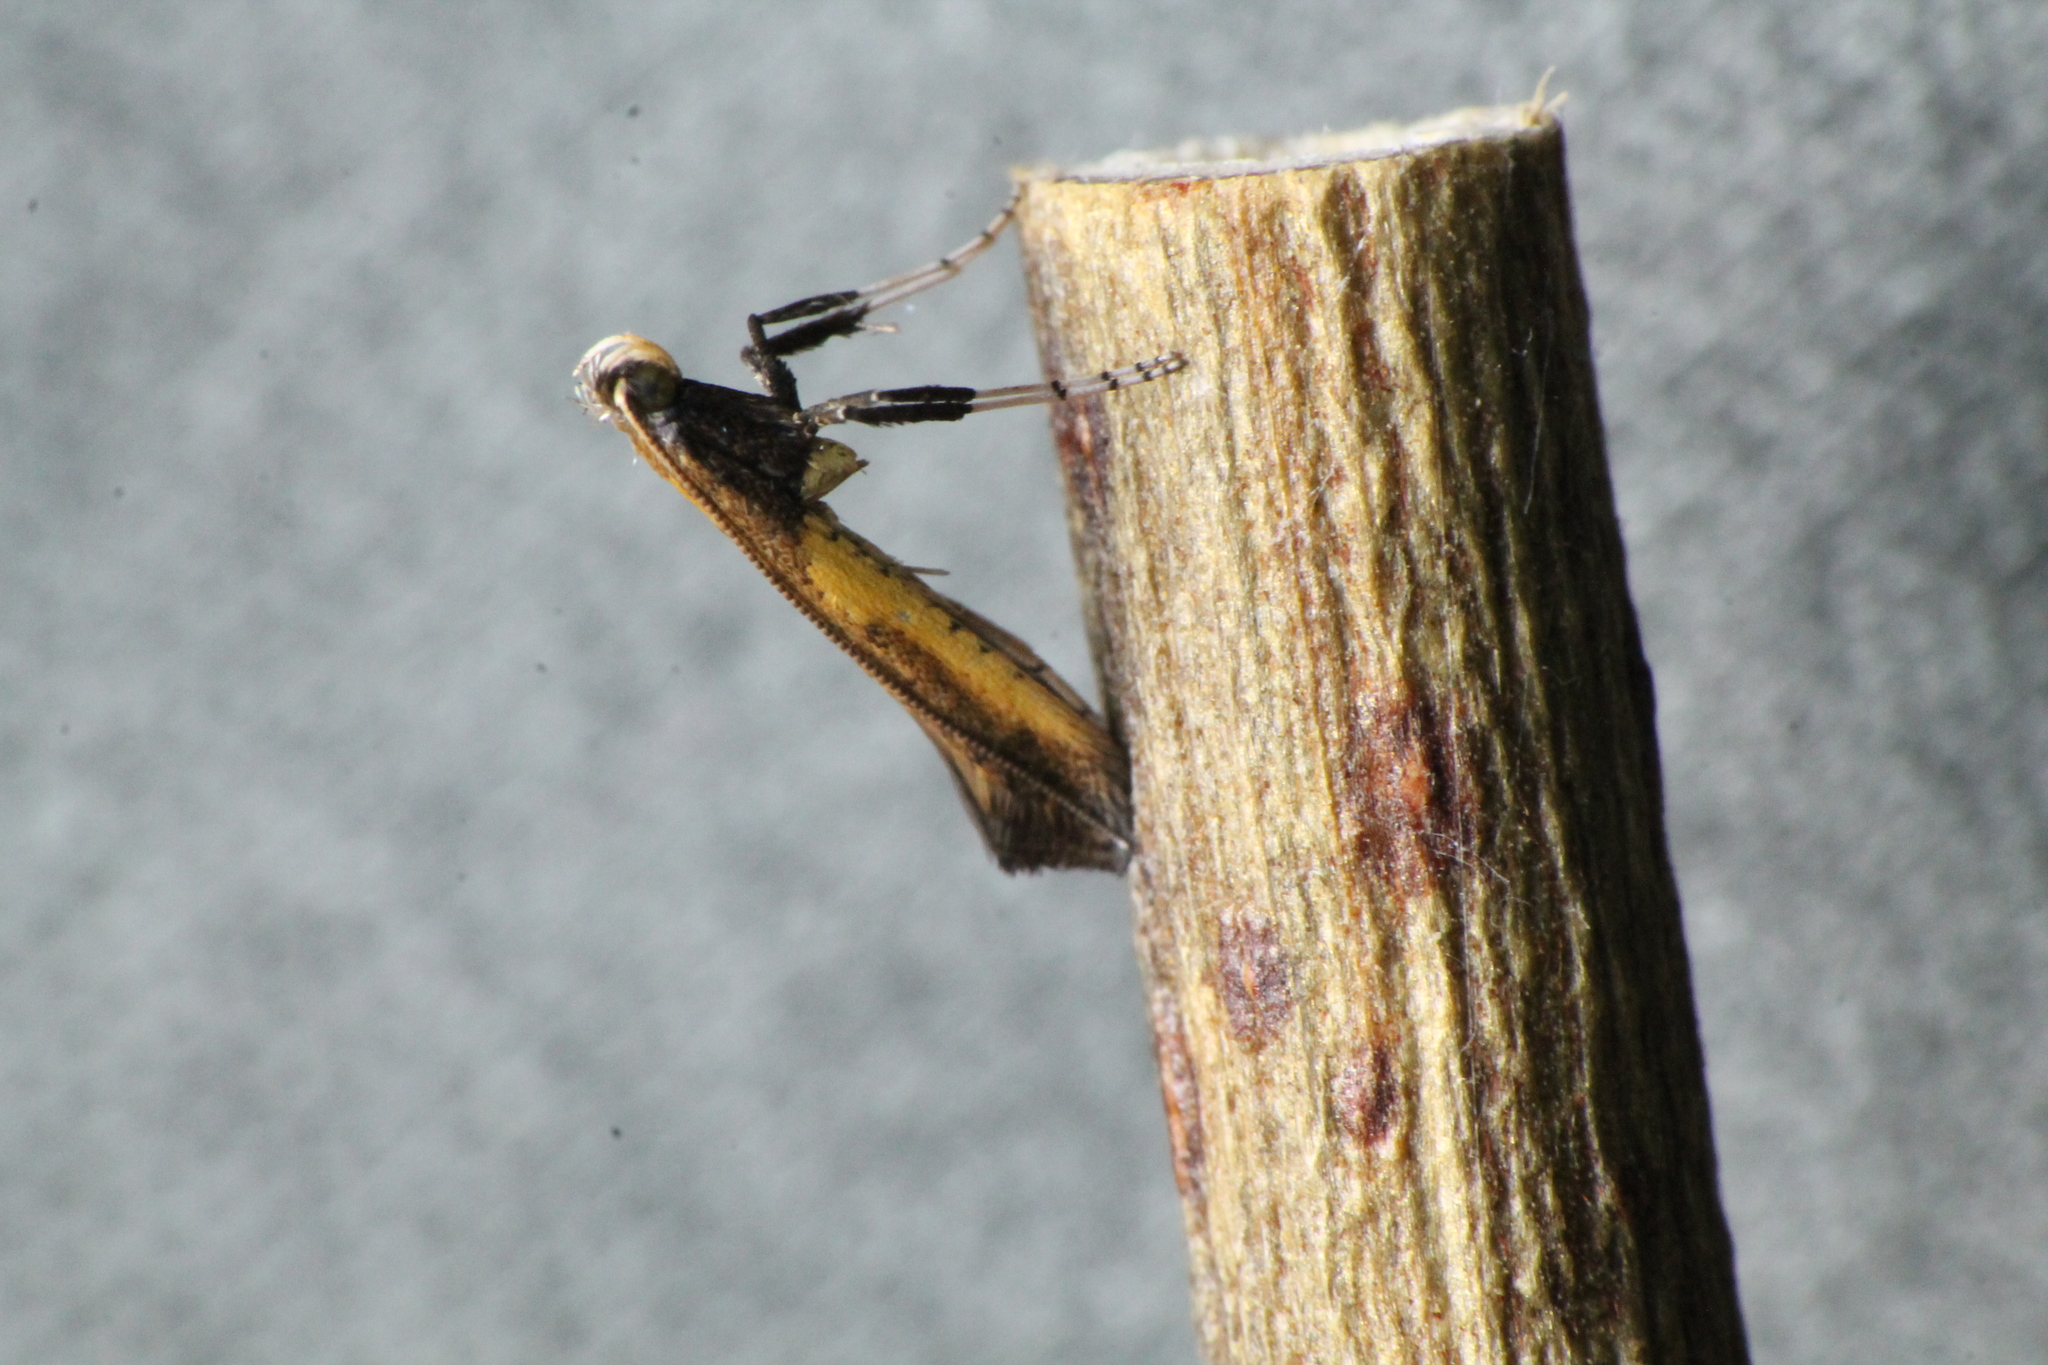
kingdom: Animalia
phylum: Arthropoda
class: Insecta
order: Lepidoptera
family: Gracillariidae
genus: Caloptilia
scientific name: Caloptilia azaleella
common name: Azalea leafminer
